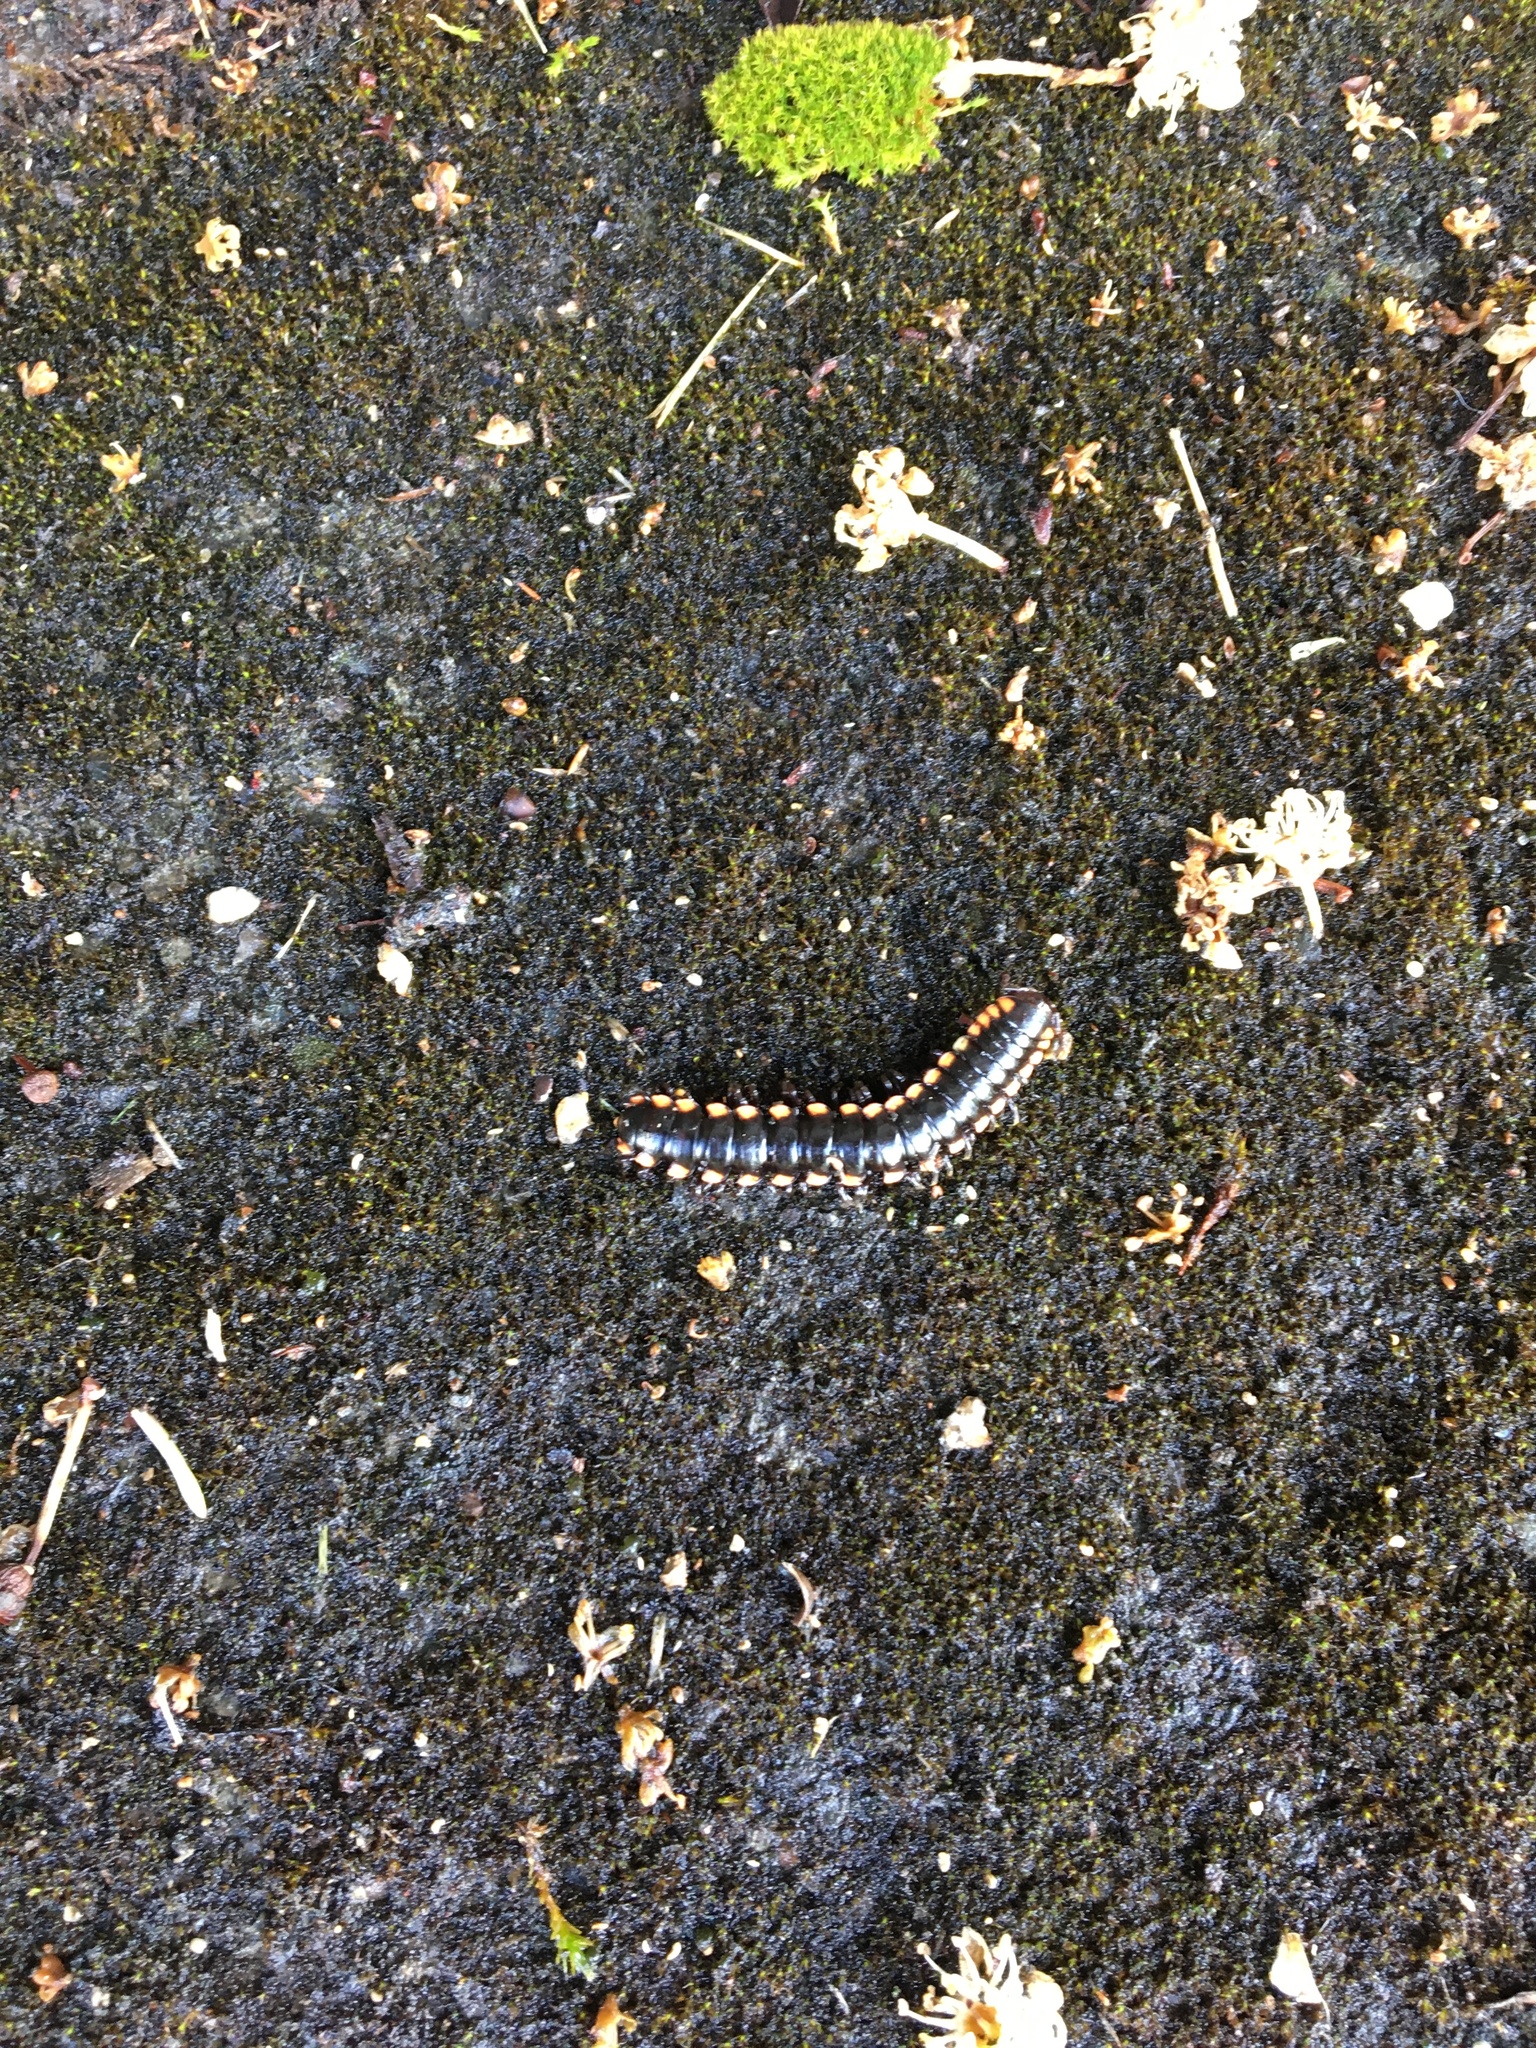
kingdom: Animalia
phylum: Arthropoda
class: Diplopoda
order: Polydesmida
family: Xystodesmidae
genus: Harpaphe
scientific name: Harpaphe haydeniana
